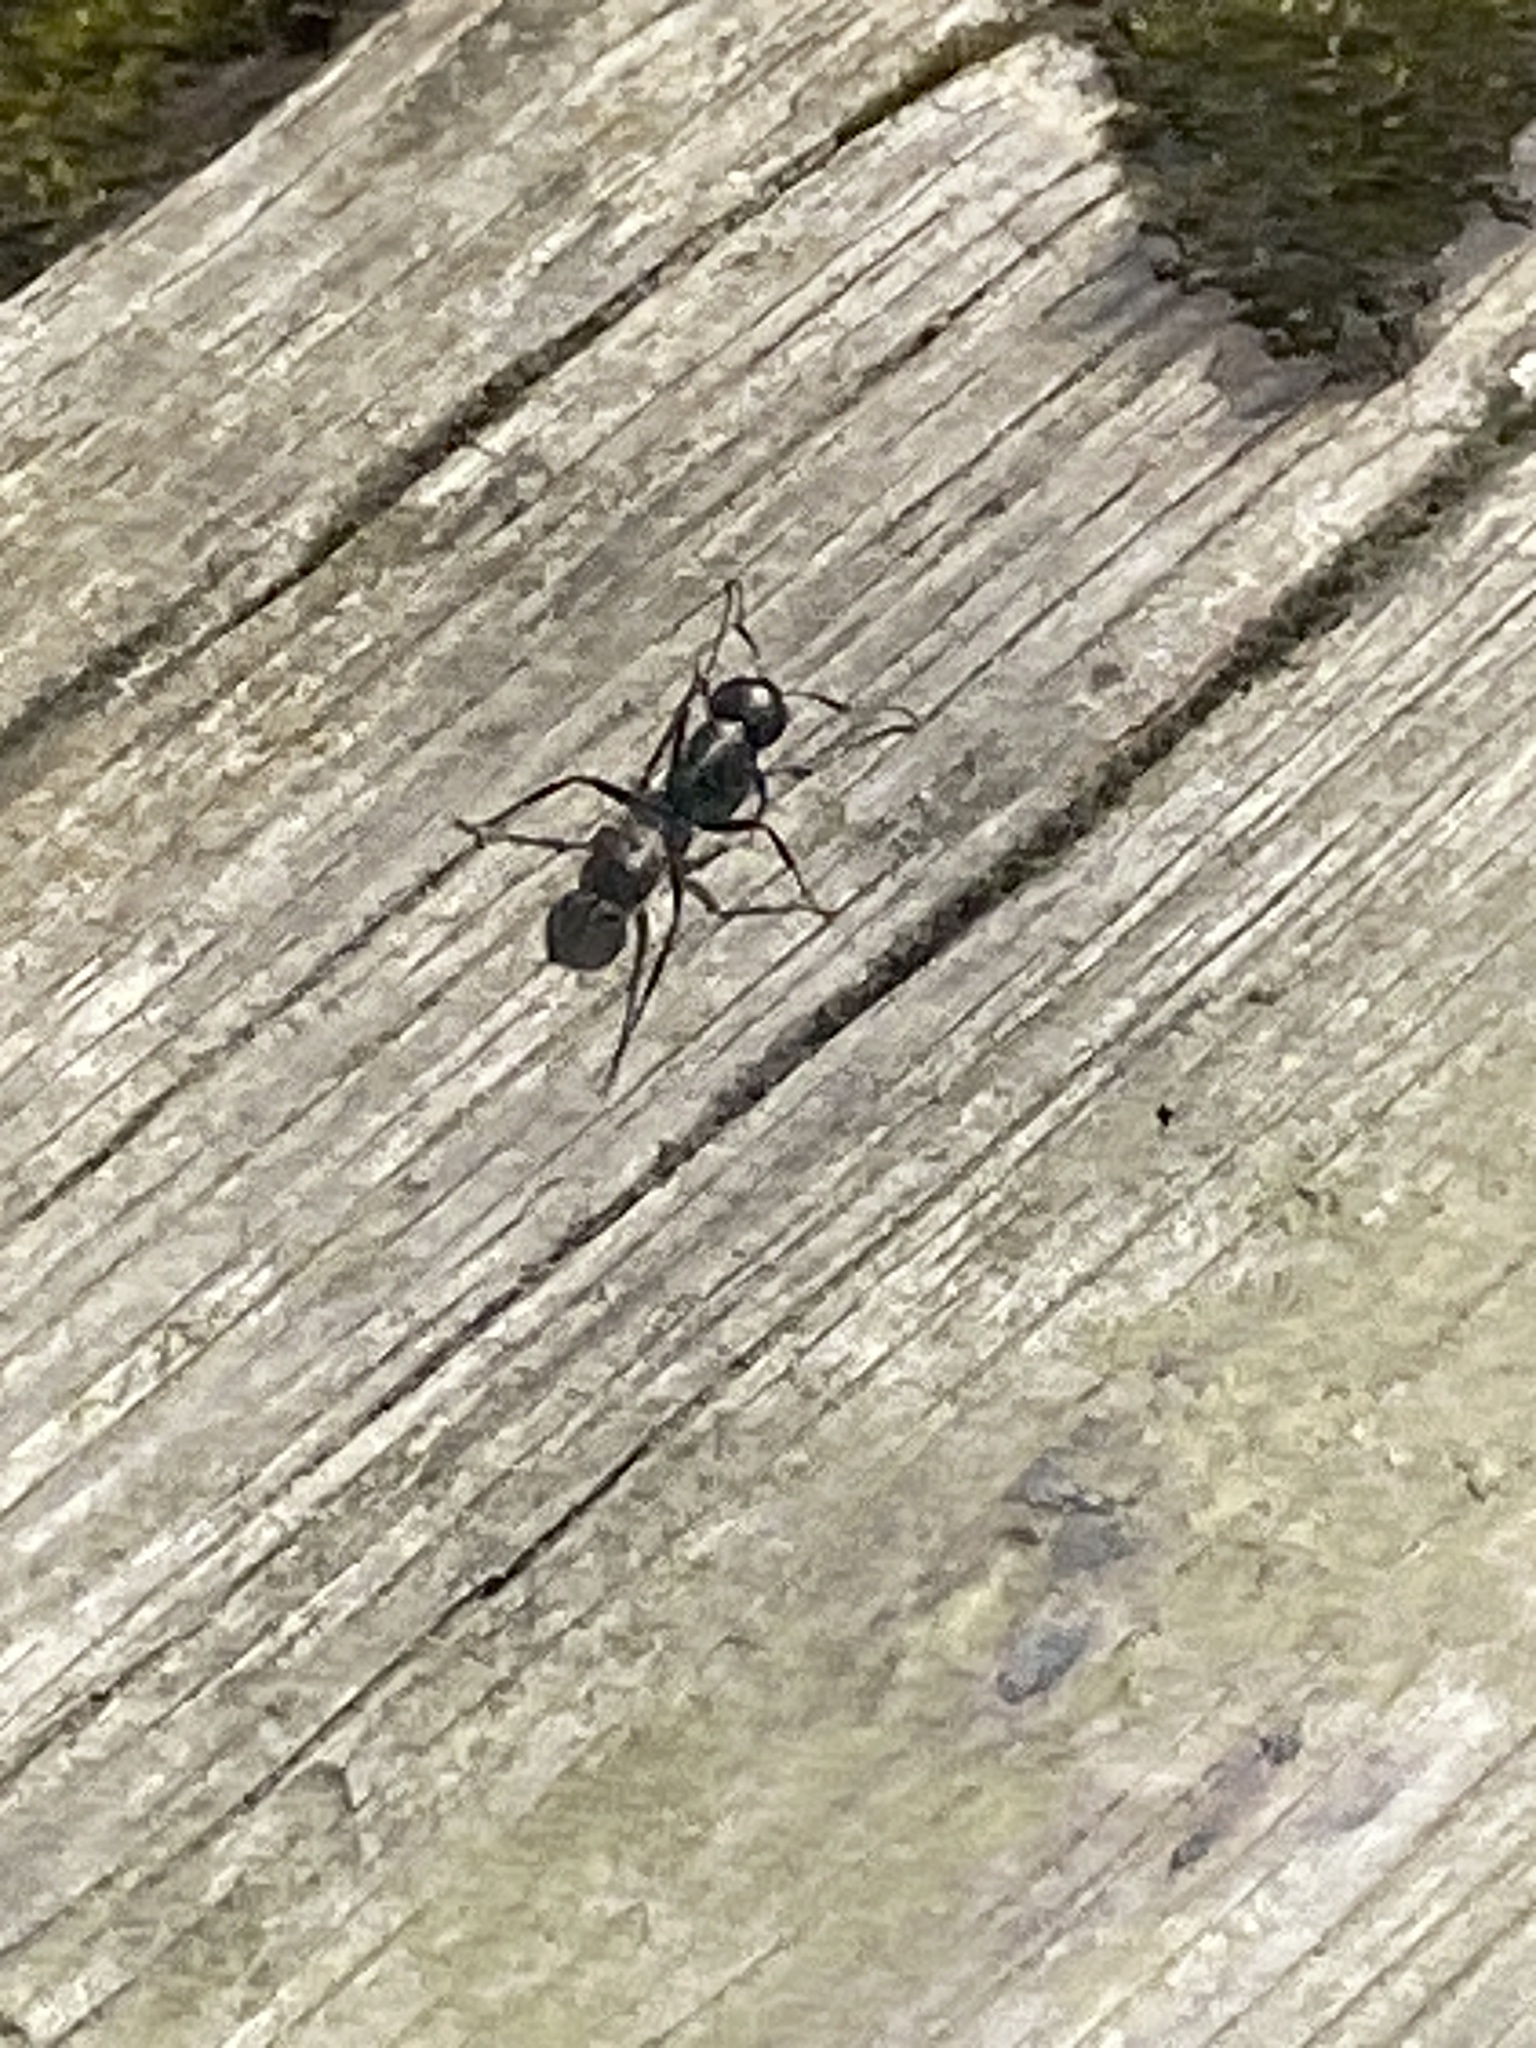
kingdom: Animalia
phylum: Arthropoda
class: Insecta
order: Hymenoptera
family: Formicidae
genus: Camponotus
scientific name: Camponotus pennsylvanicus
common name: Black carpenter ant
